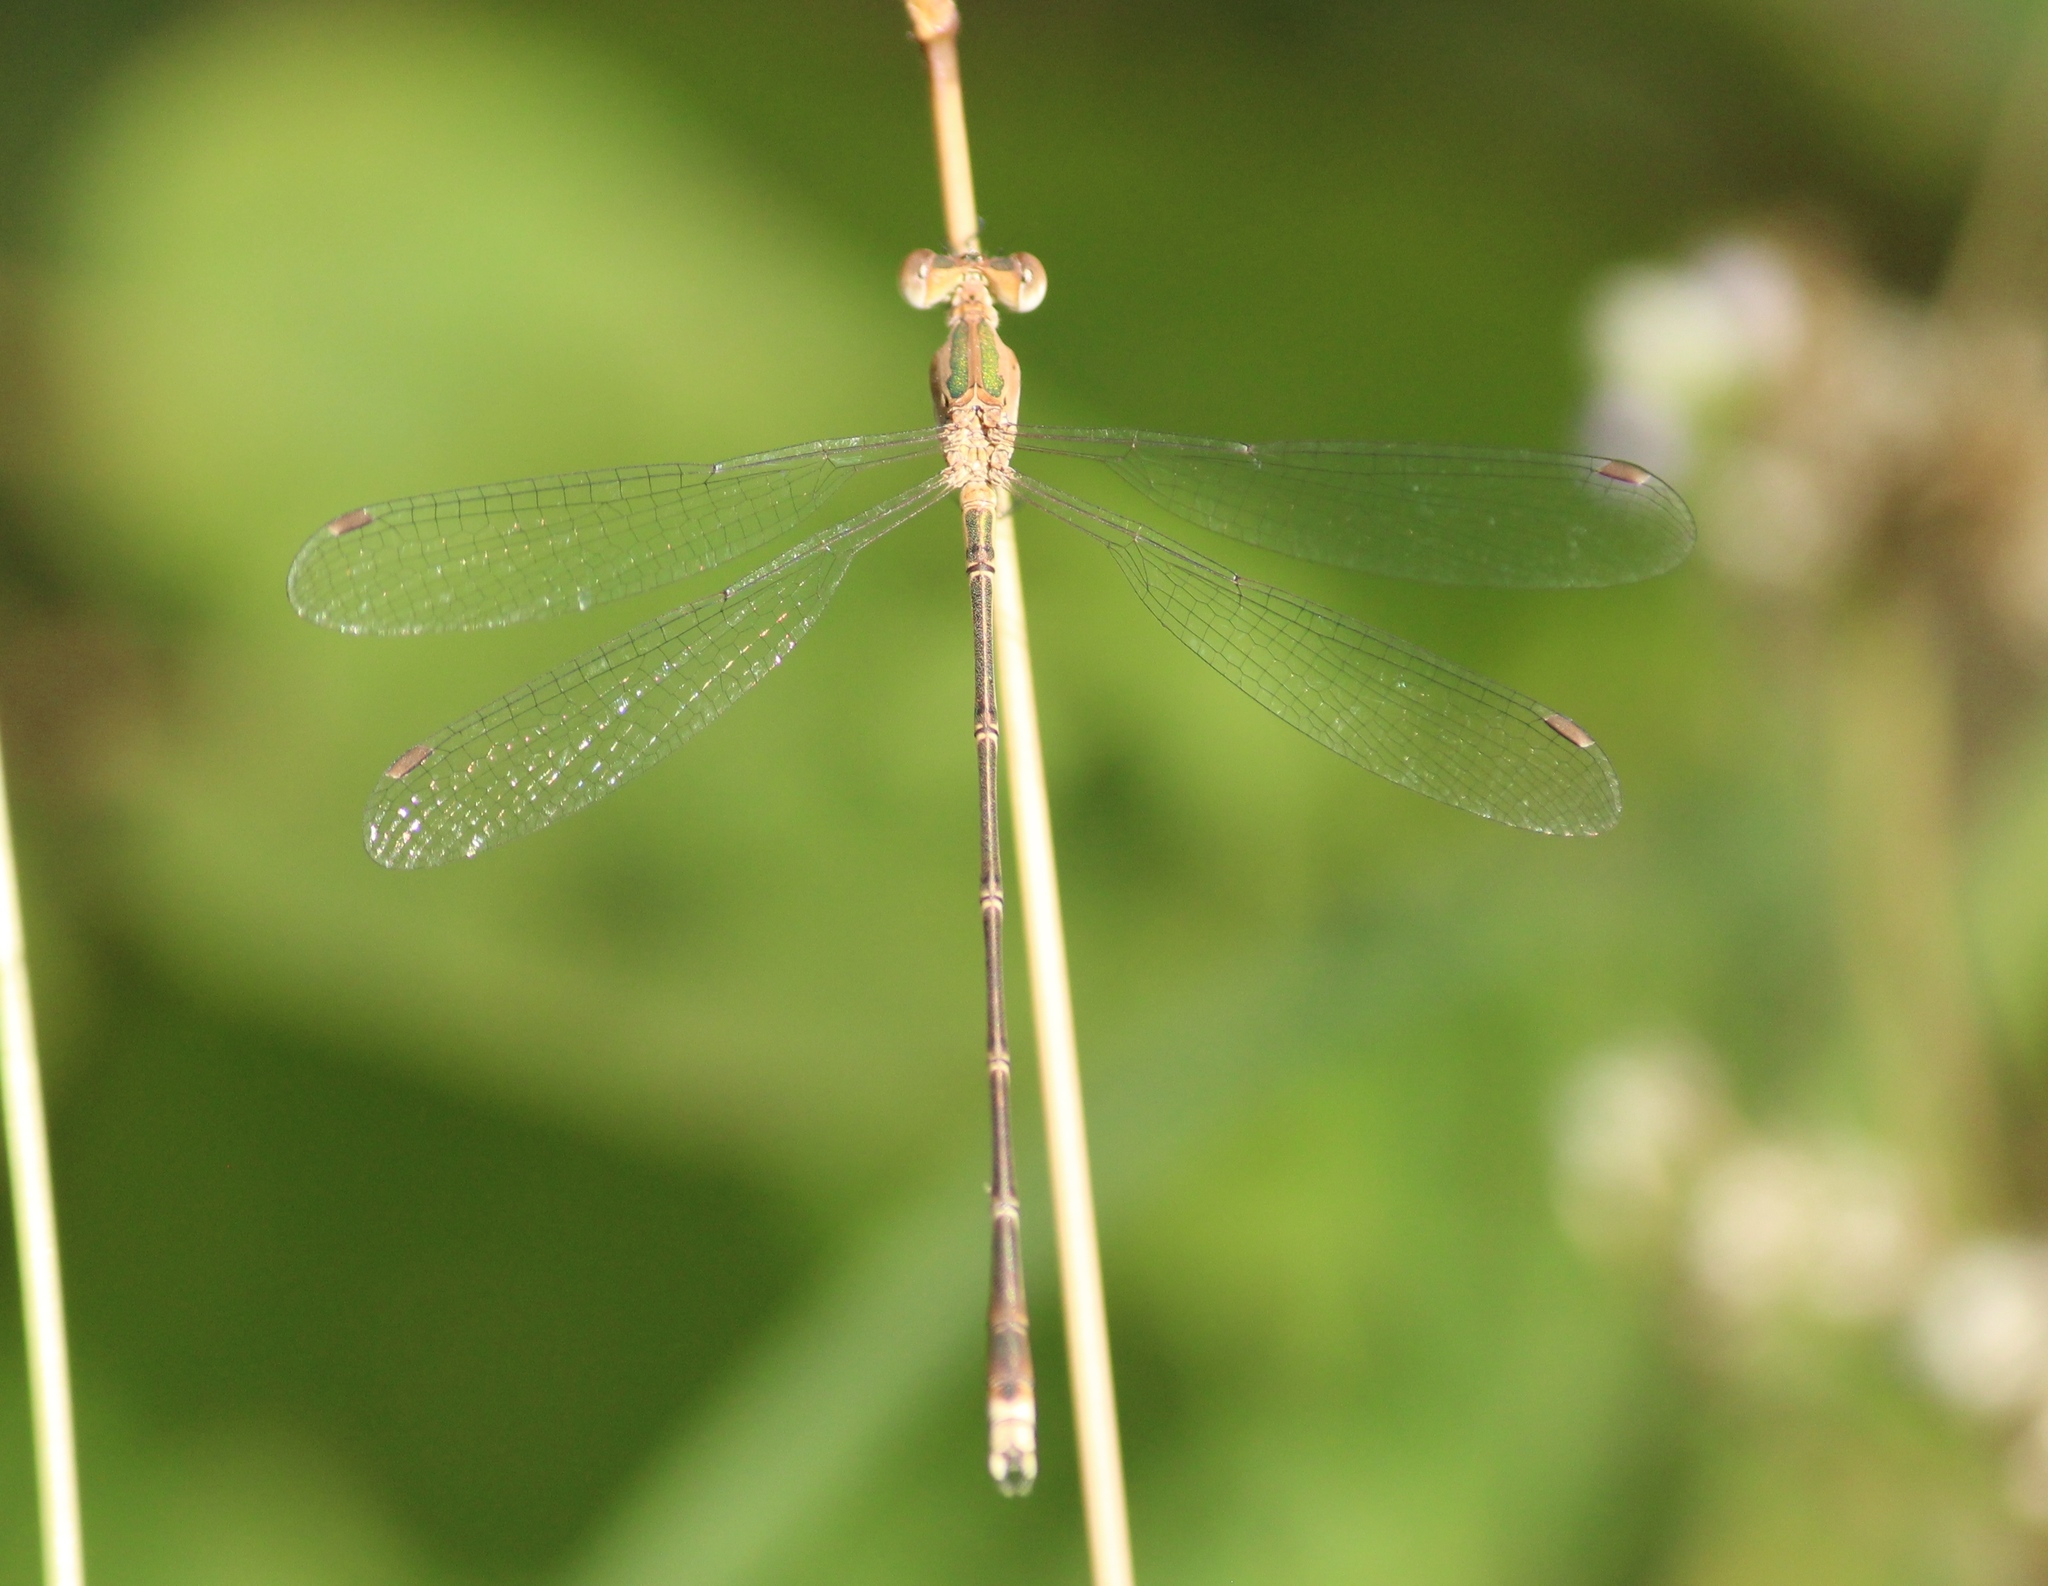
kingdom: Animalia
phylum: Arthropoda
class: Insecta
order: Odonata
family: Lestidae
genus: Lestes
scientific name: Lestes elatus
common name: Emerald spreadwing
